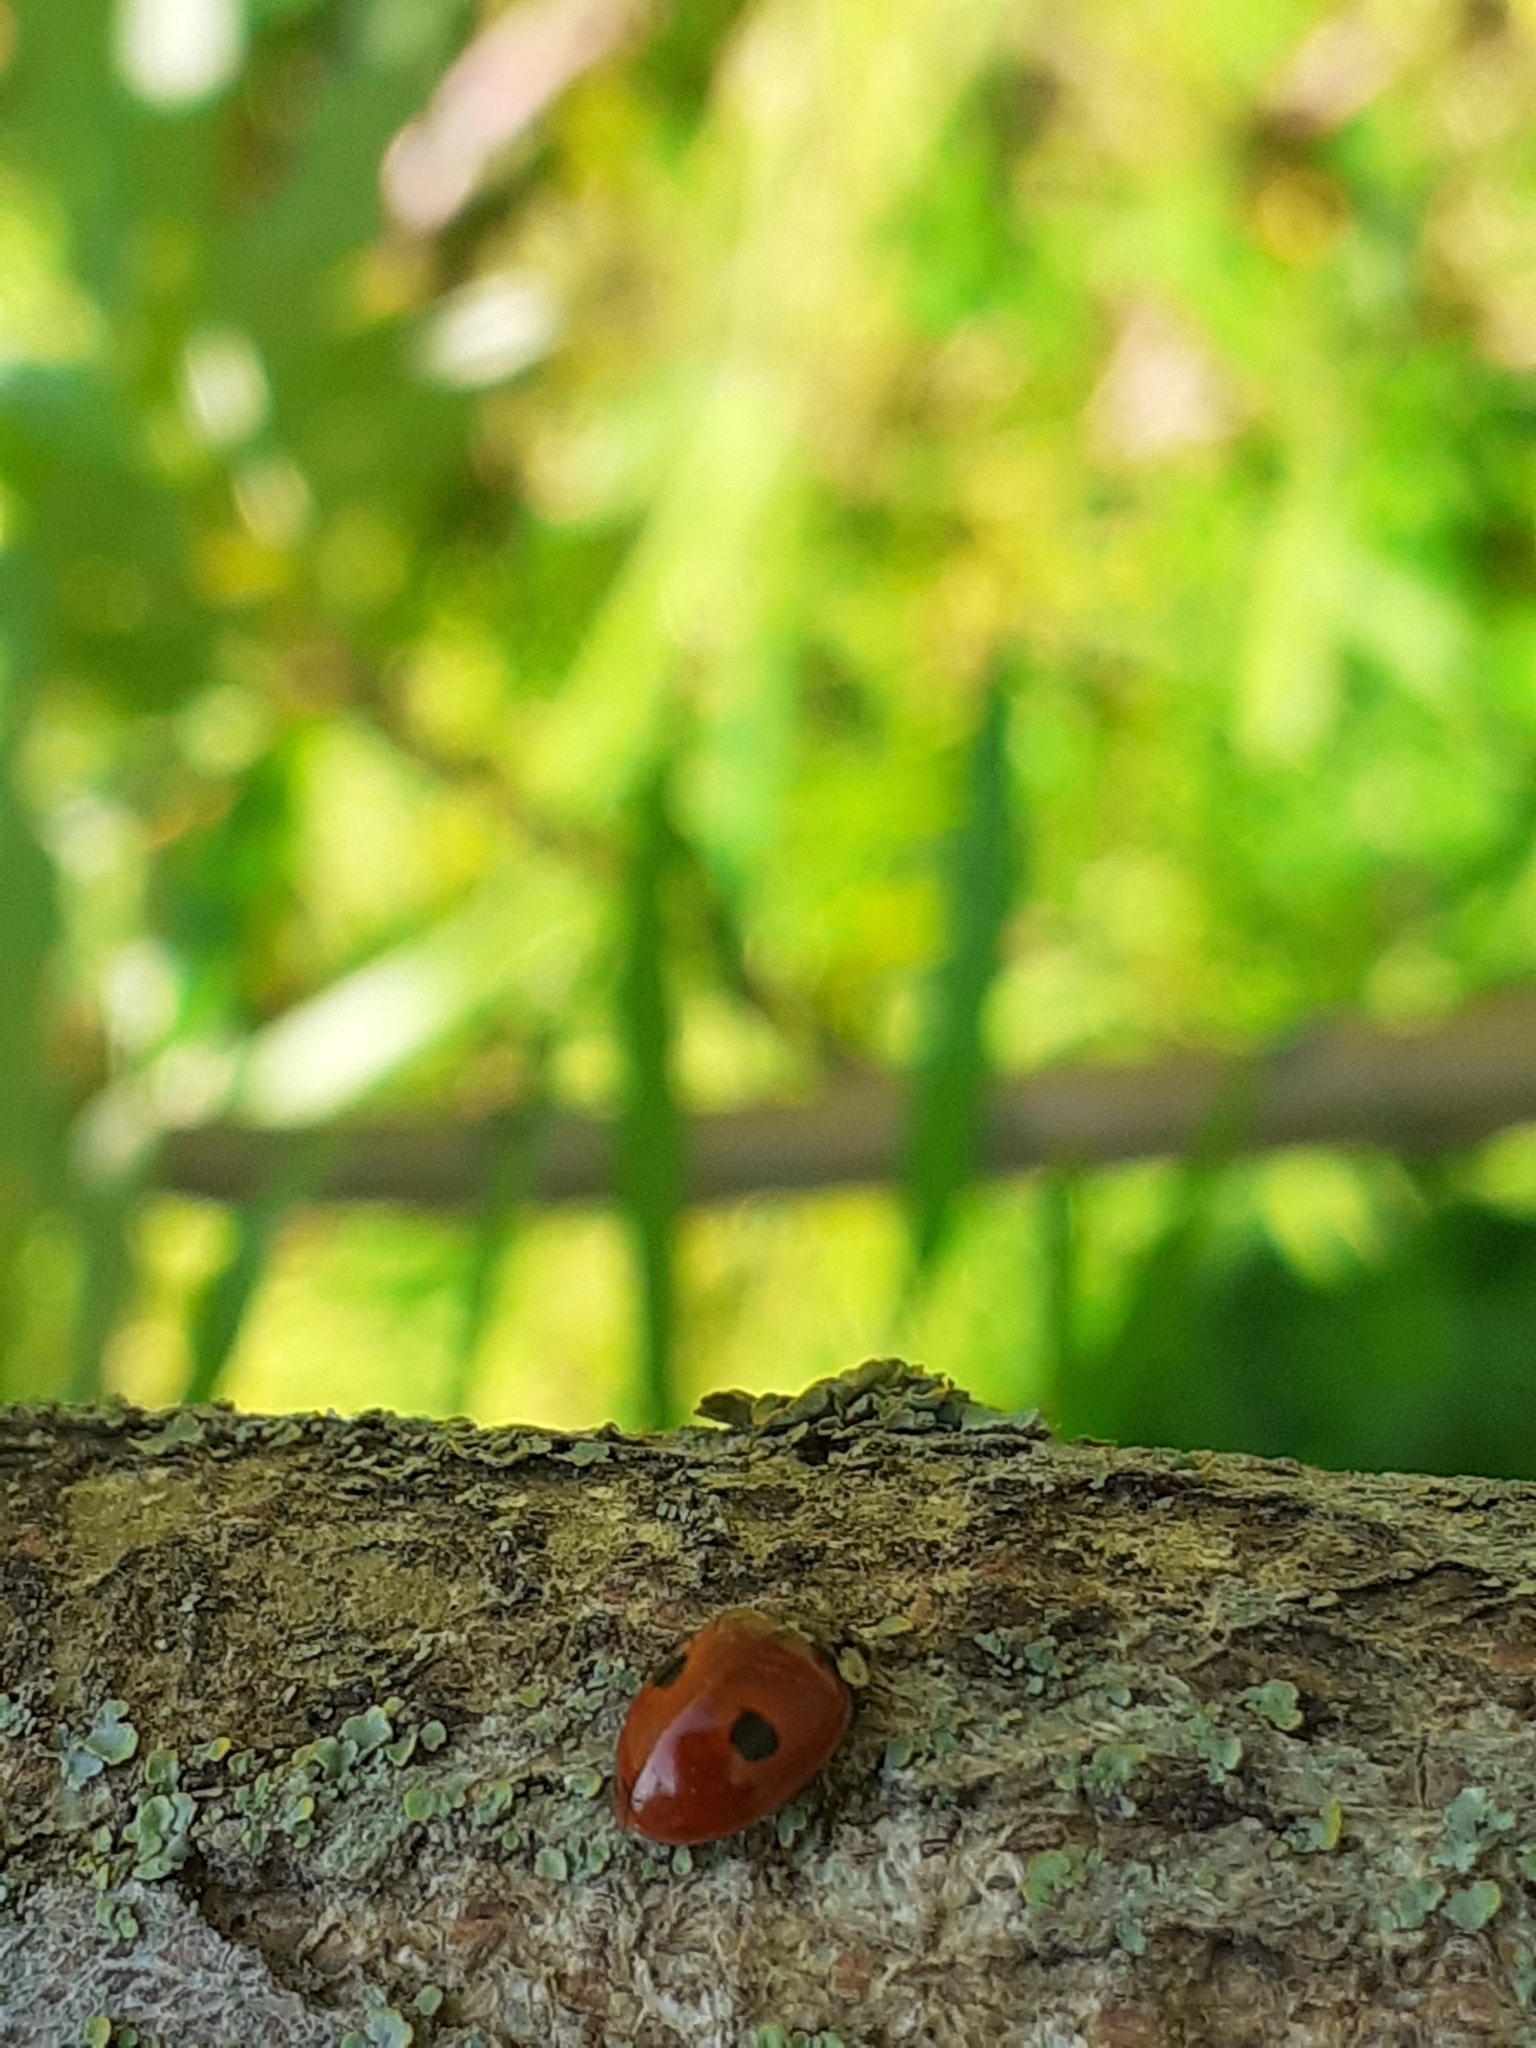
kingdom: Animalia
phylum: Arthropoda
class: Insecta
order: Coleoptera
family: Coccinellidae
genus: Adalia
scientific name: Adalia bipunctata
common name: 2-spot ladybird
